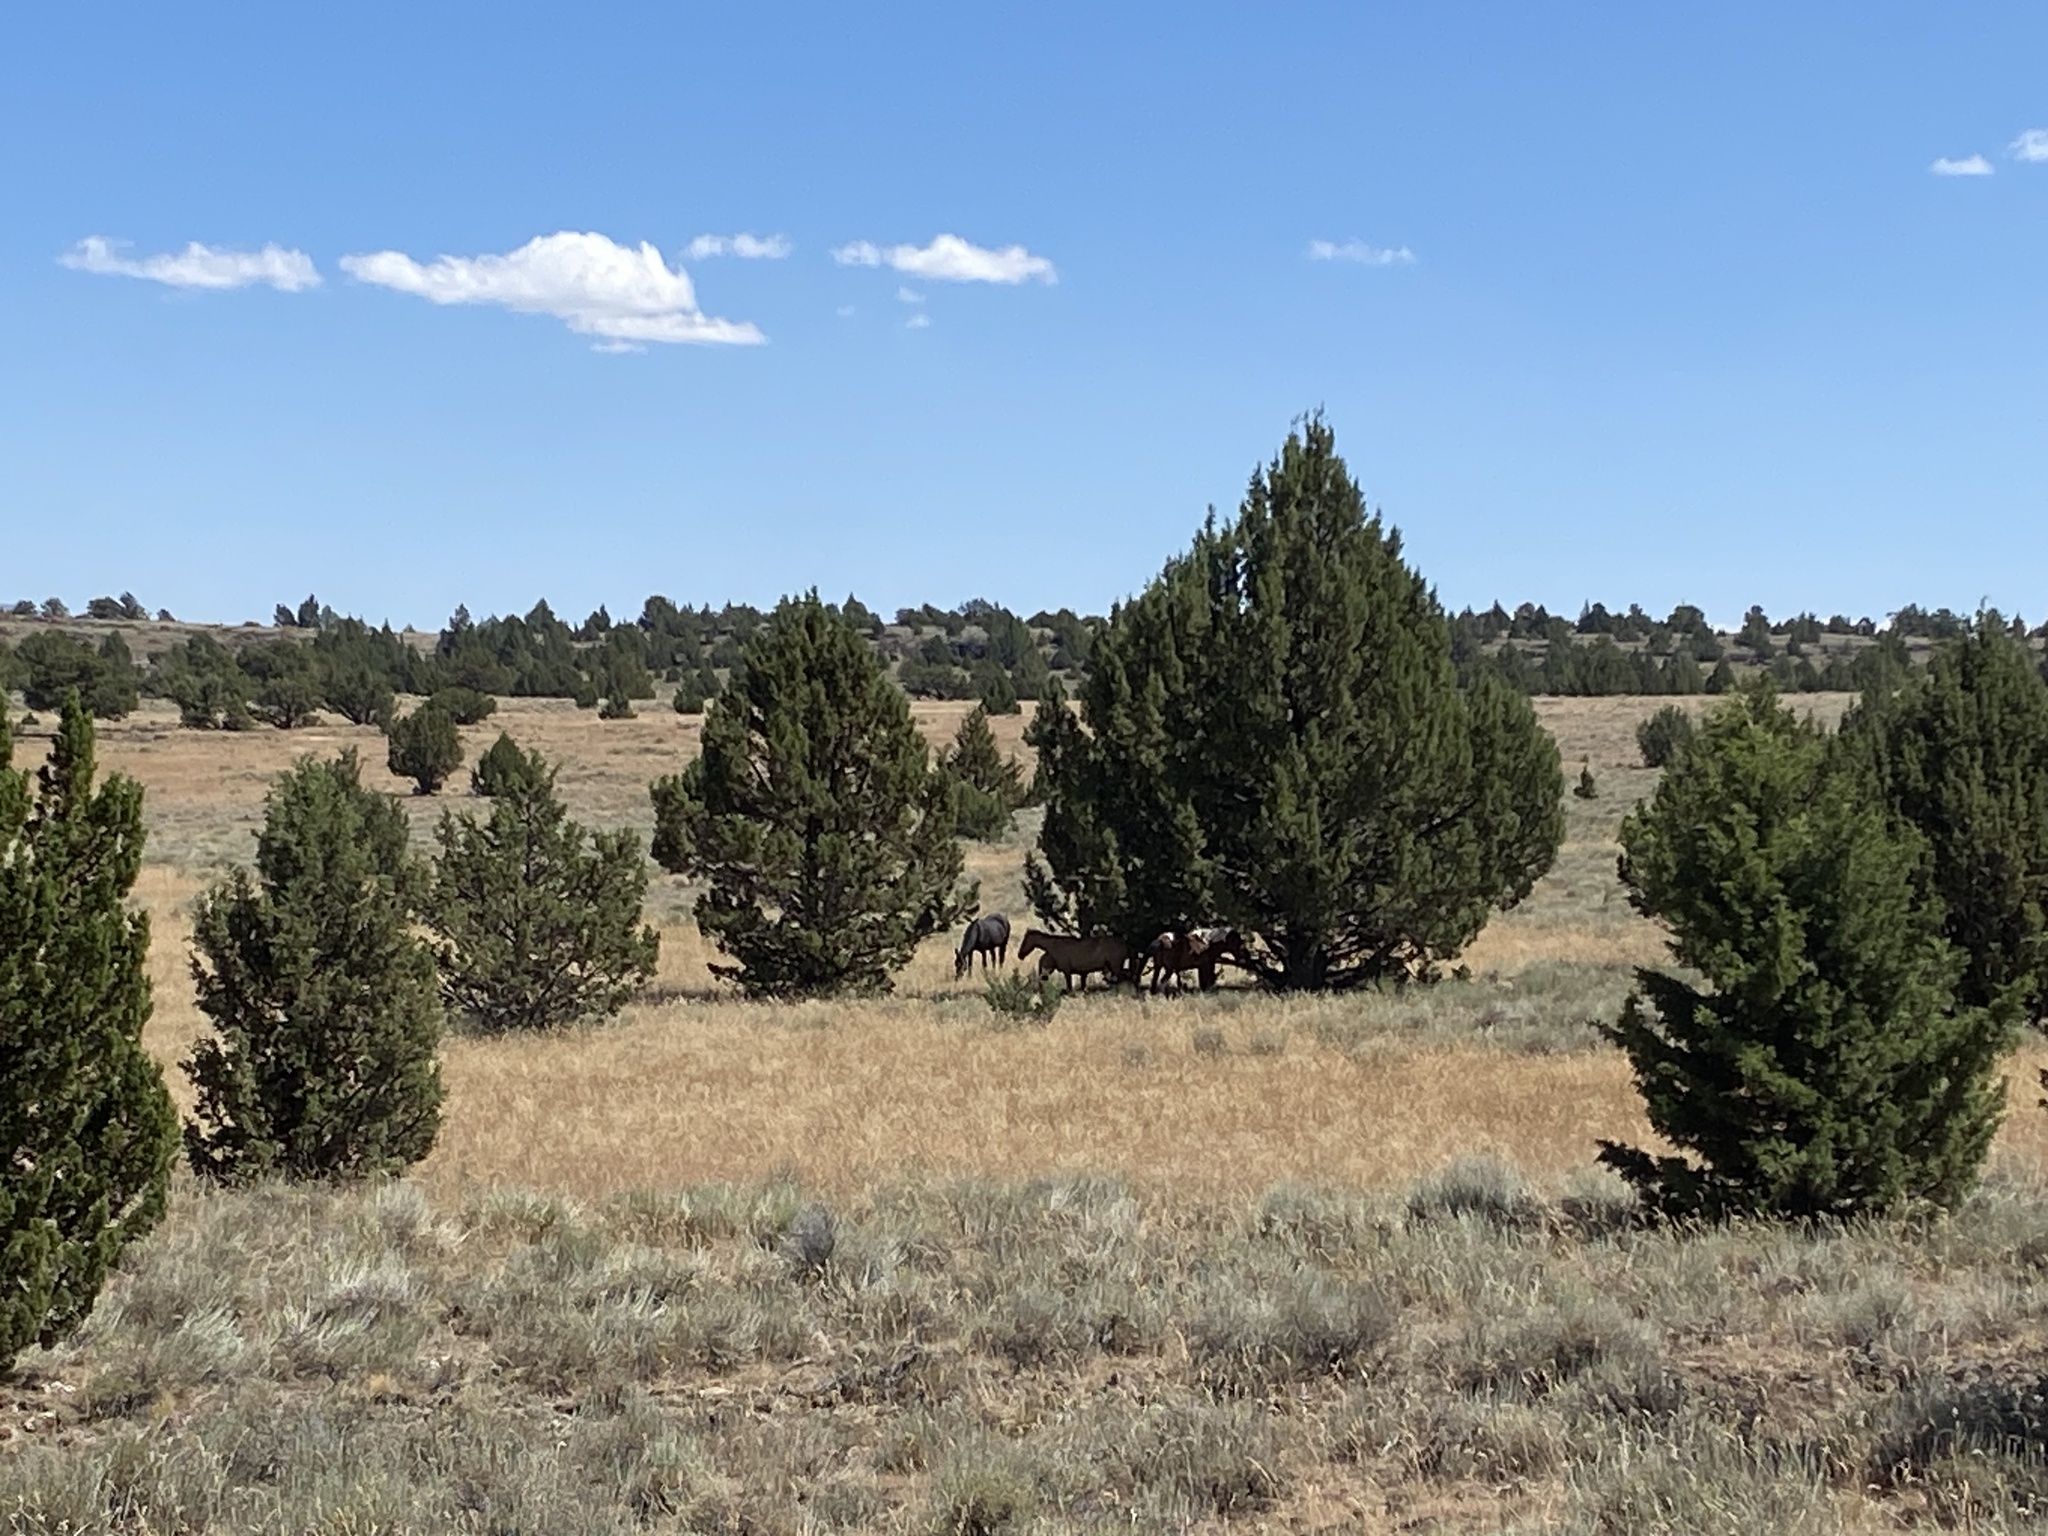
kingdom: Animalia
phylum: Chordata
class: Mammalia
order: Perissodactyla
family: Equidae
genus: Equus
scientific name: Equus caballus
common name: Horse
